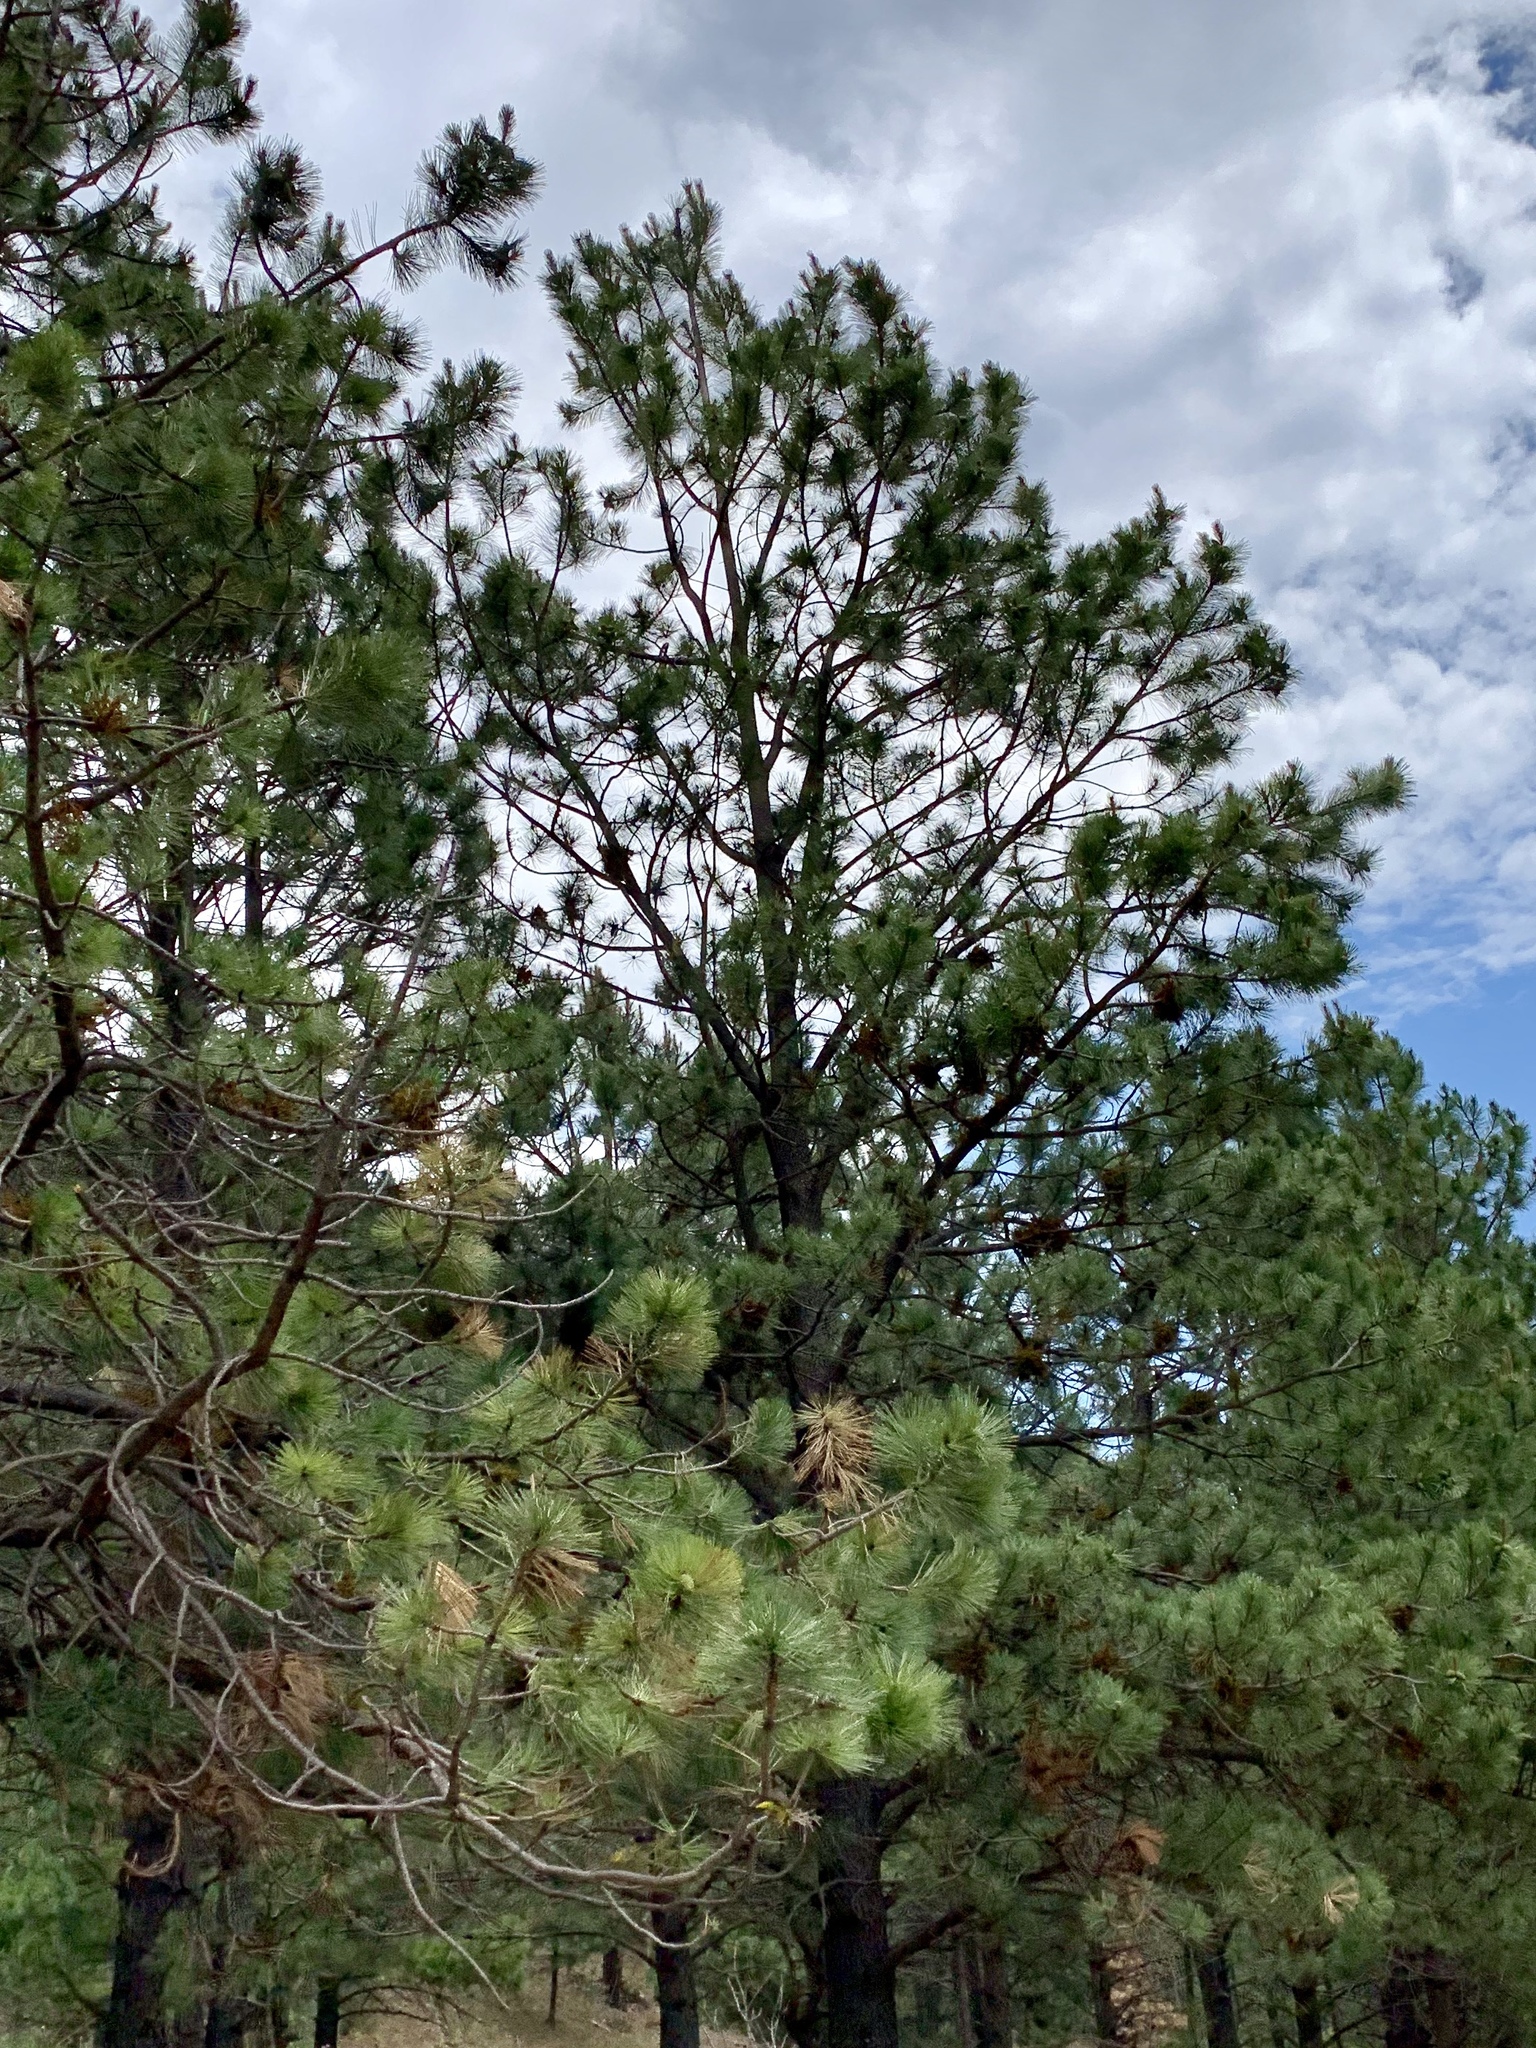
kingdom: Plantae
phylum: Tracheophyta
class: Pinopsida
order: Pinales
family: Pinaceae
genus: Pinus
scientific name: Pinus ponderosa
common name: Western yellow-pine
